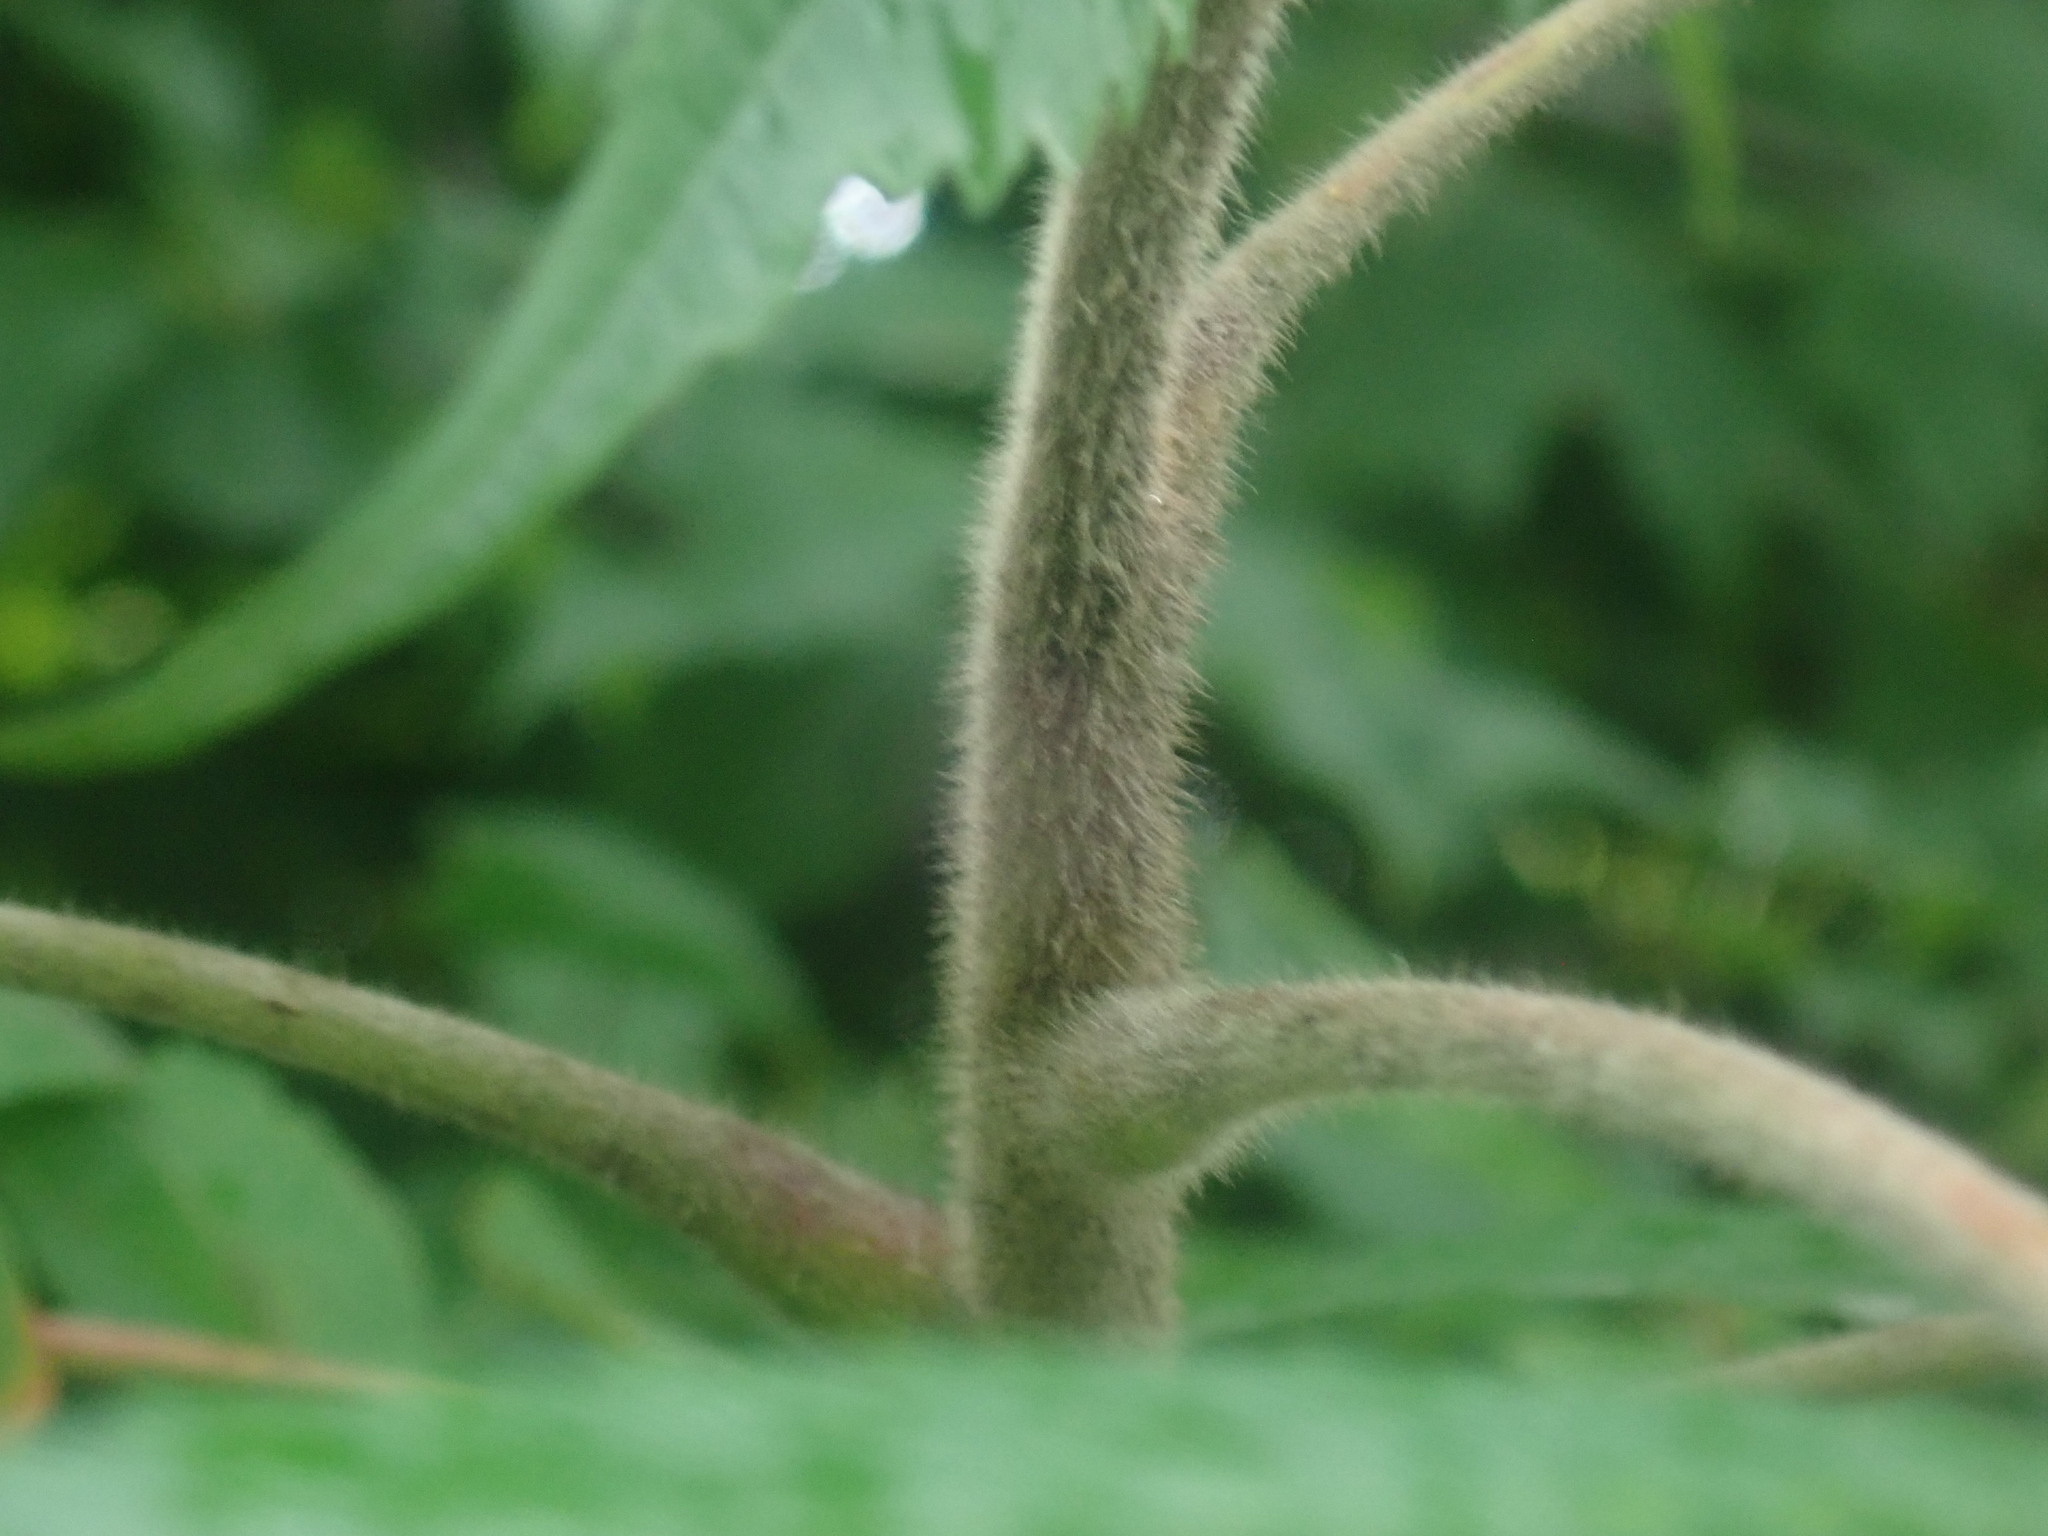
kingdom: Plantae
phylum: Tracheophyta
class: Magnoliopsida
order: Sapindales
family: Anacardiaceae
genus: Rhus
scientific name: Rhus typhina
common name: Staghorn sumac
